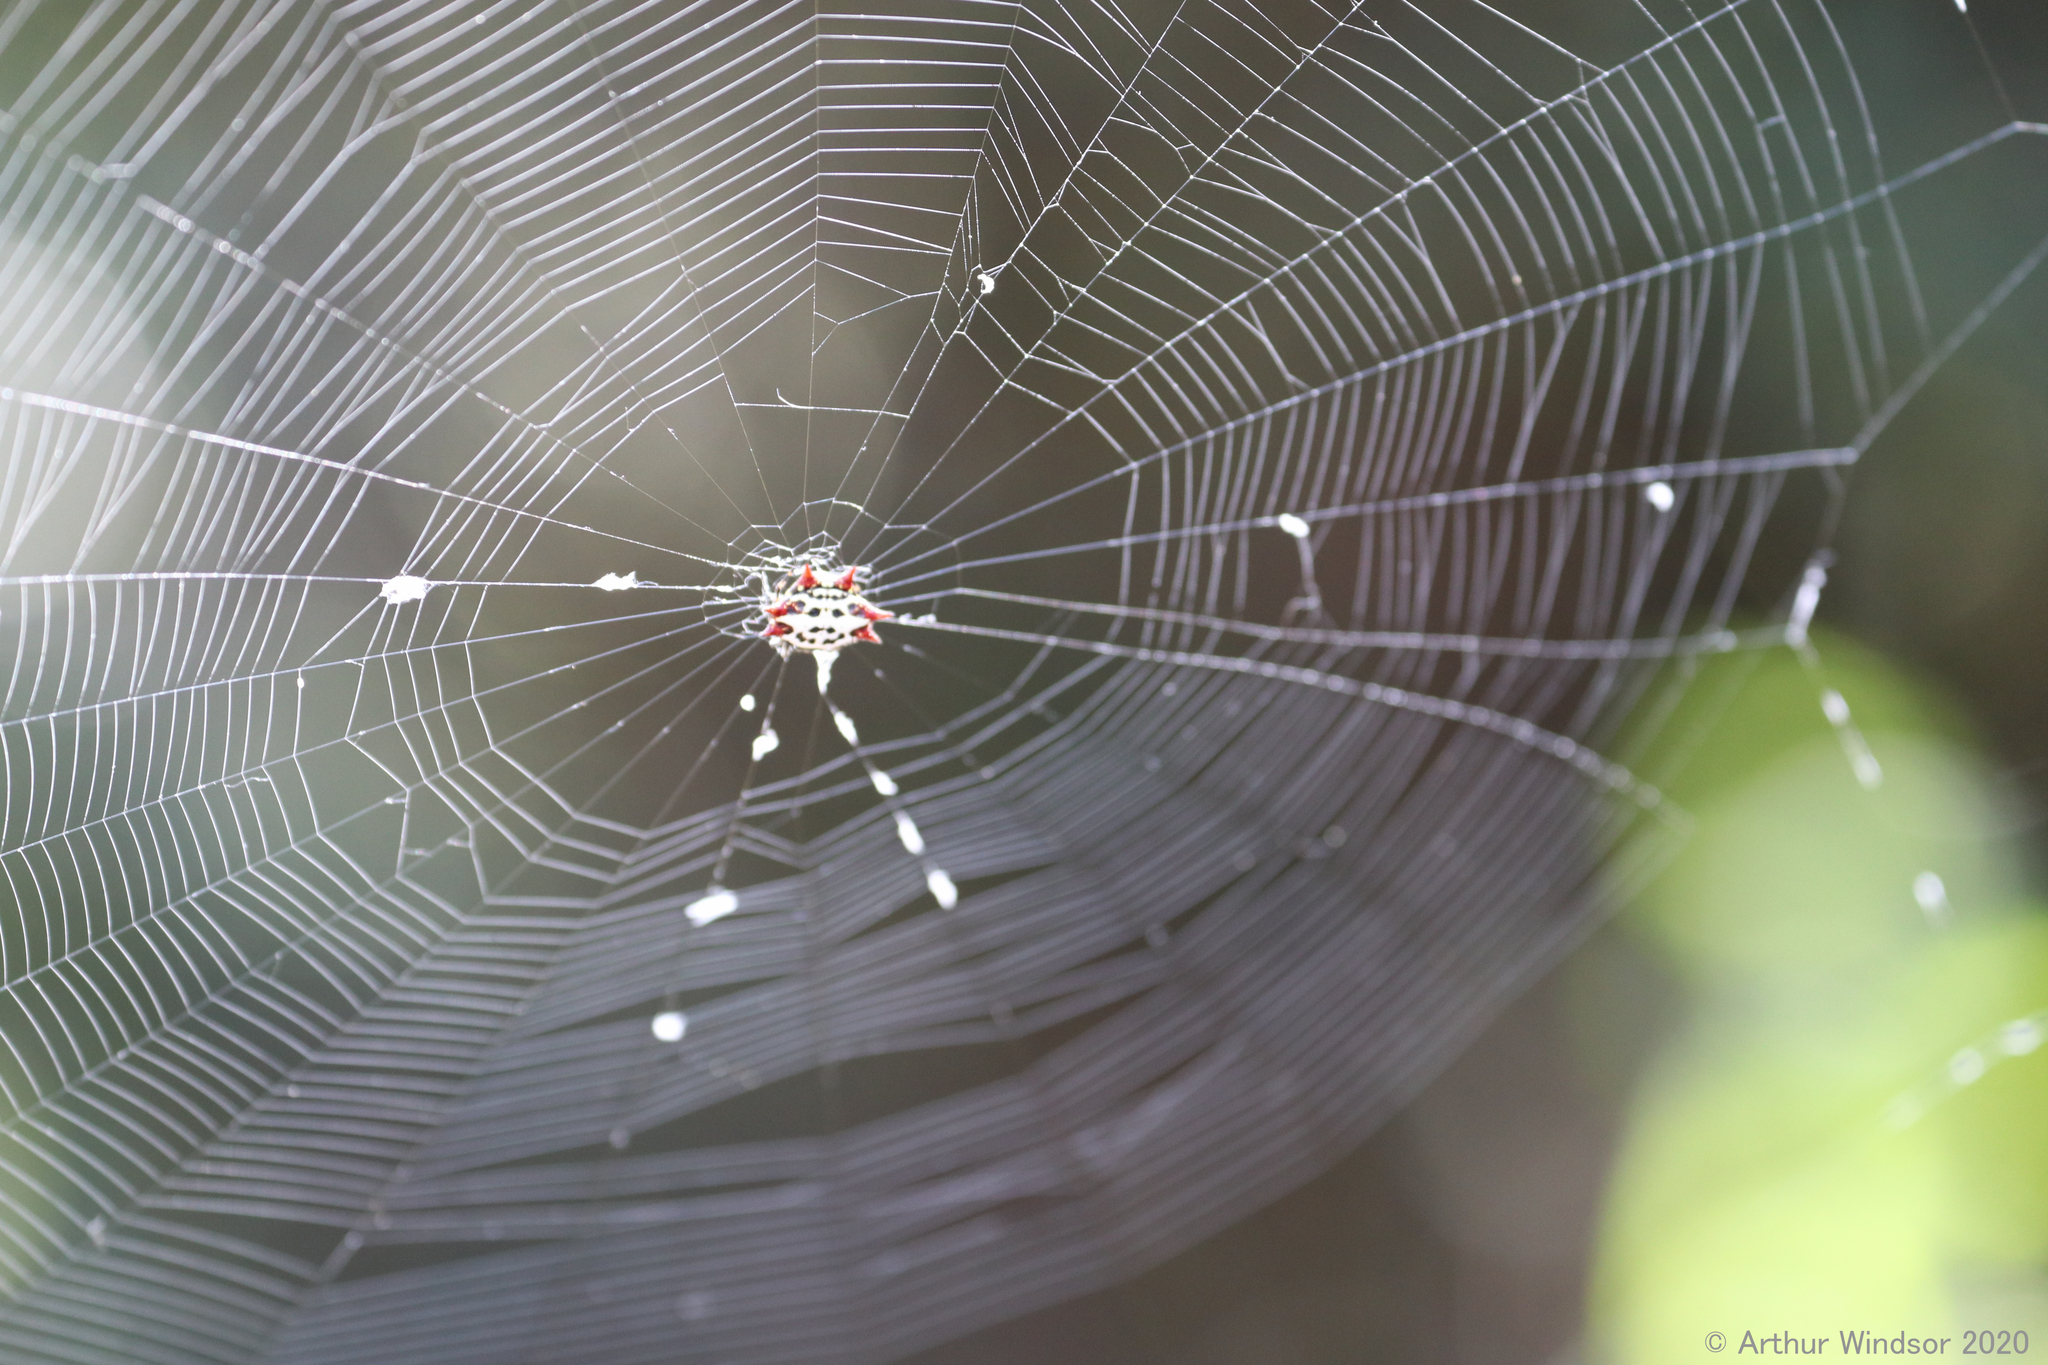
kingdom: Animalia
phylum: Arthropoda
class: Arachnida
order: Araneae
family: Araneidae
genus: Gasteracantha
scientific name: Gasteracantha cancriformis
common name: Orb weavers
